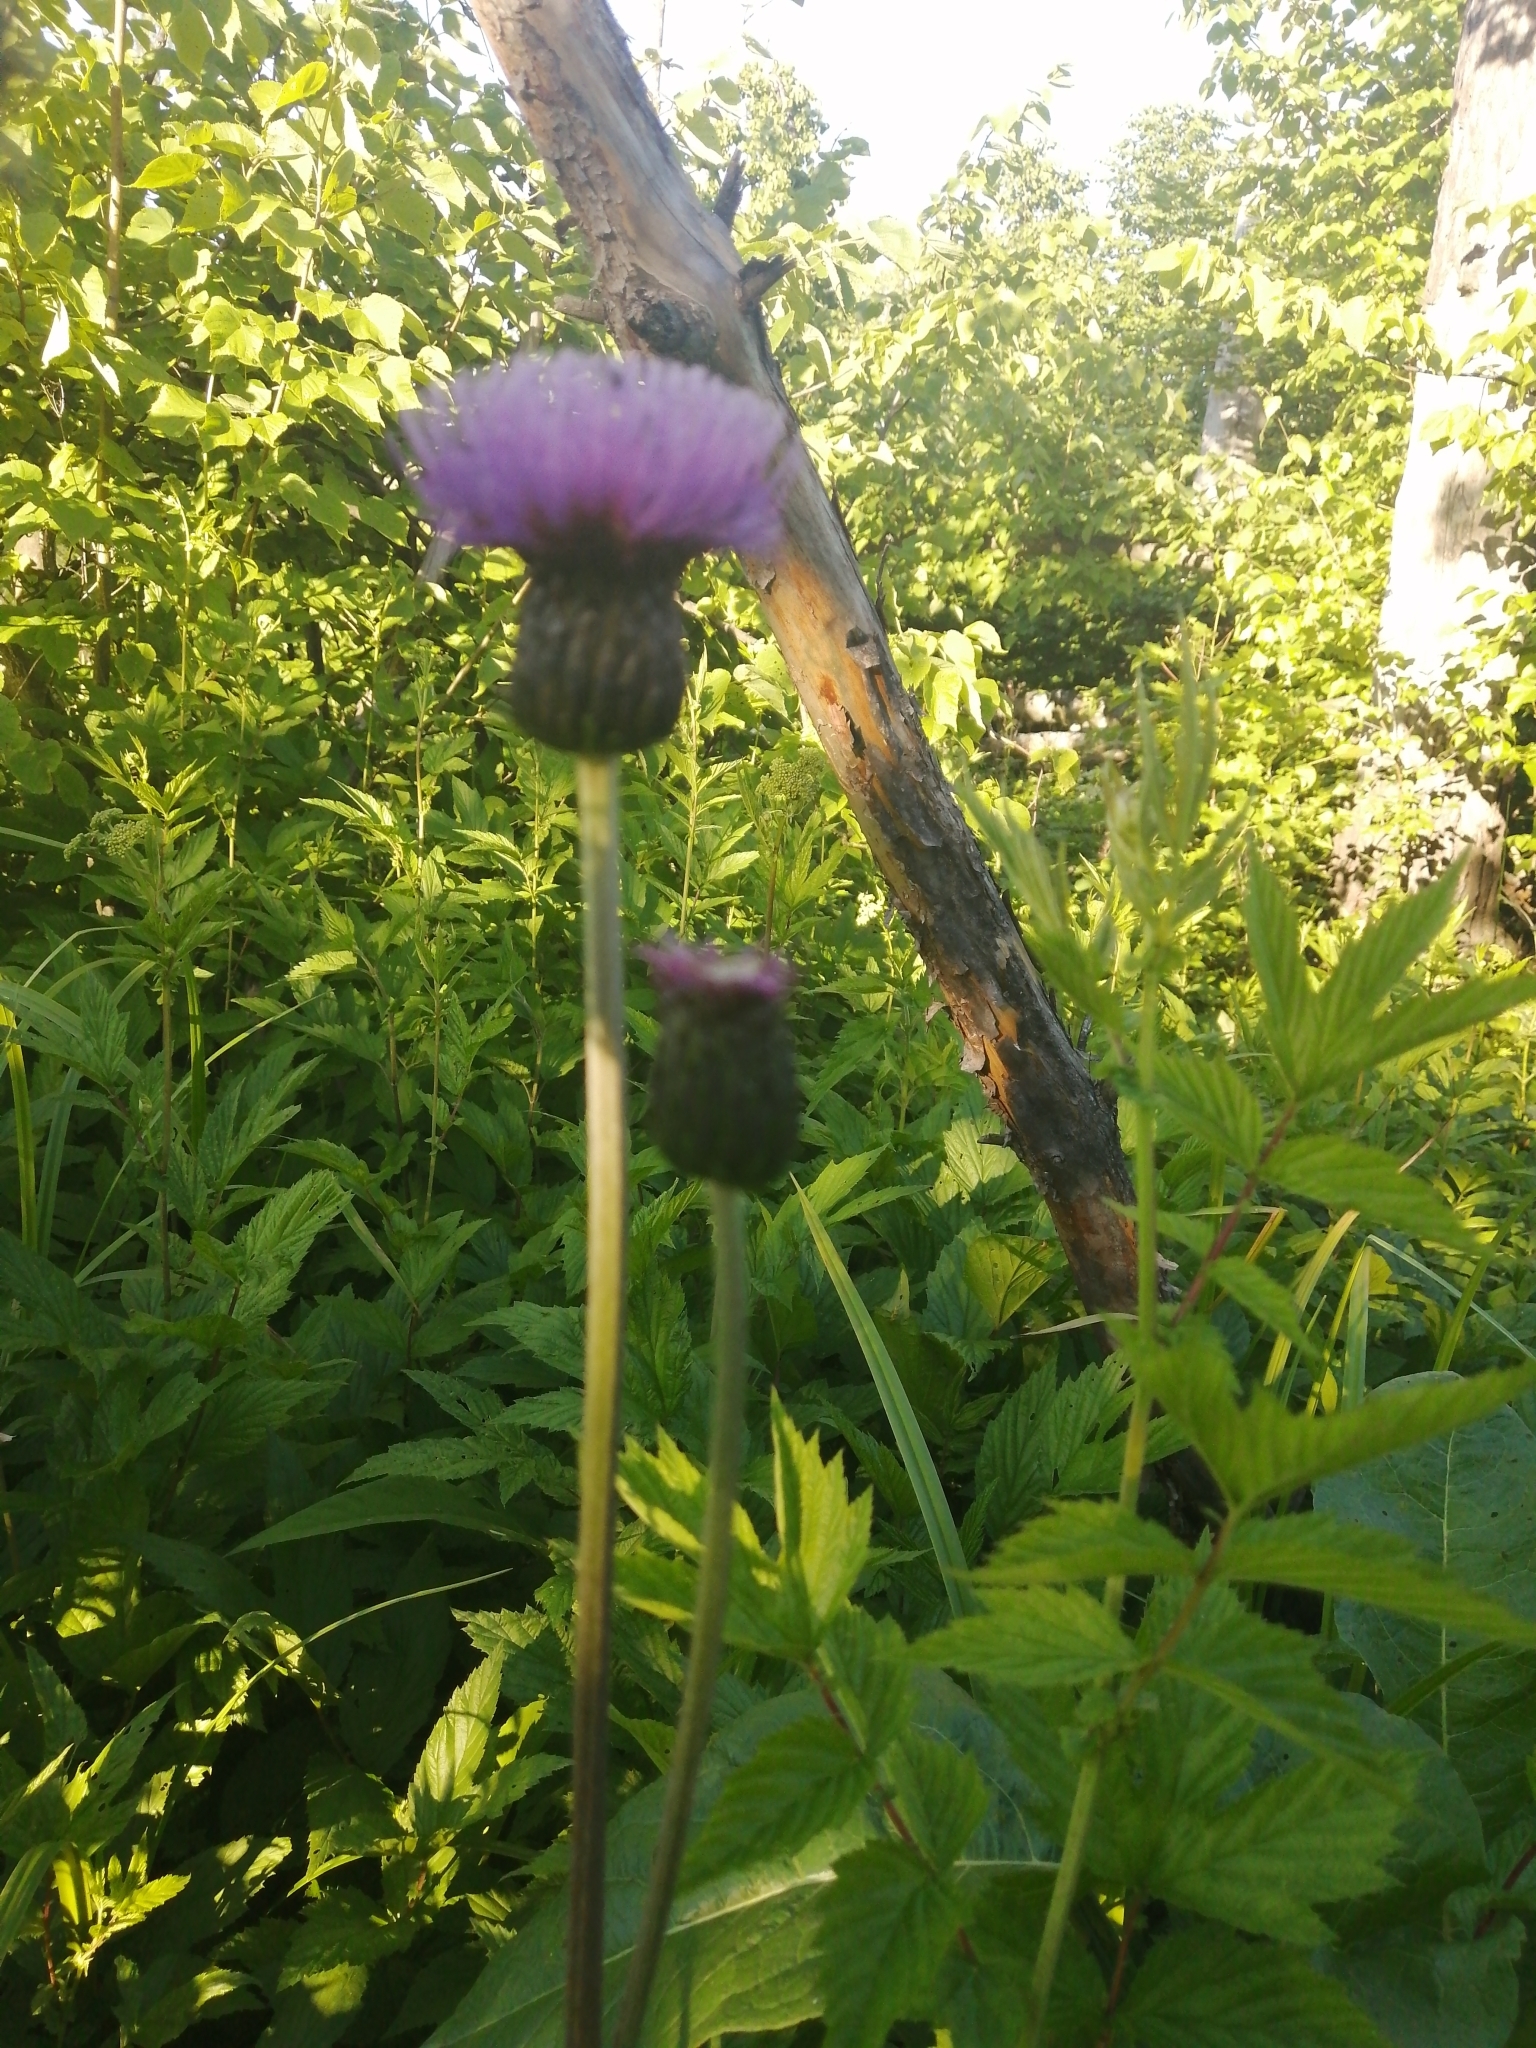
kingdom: Plantae
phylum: Tracheophyta
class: Magnoliopsida
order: Asterales
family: Asteraceae
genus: Cirsium
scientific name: Cirsium heterophyllum
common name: Melancholy thistle
